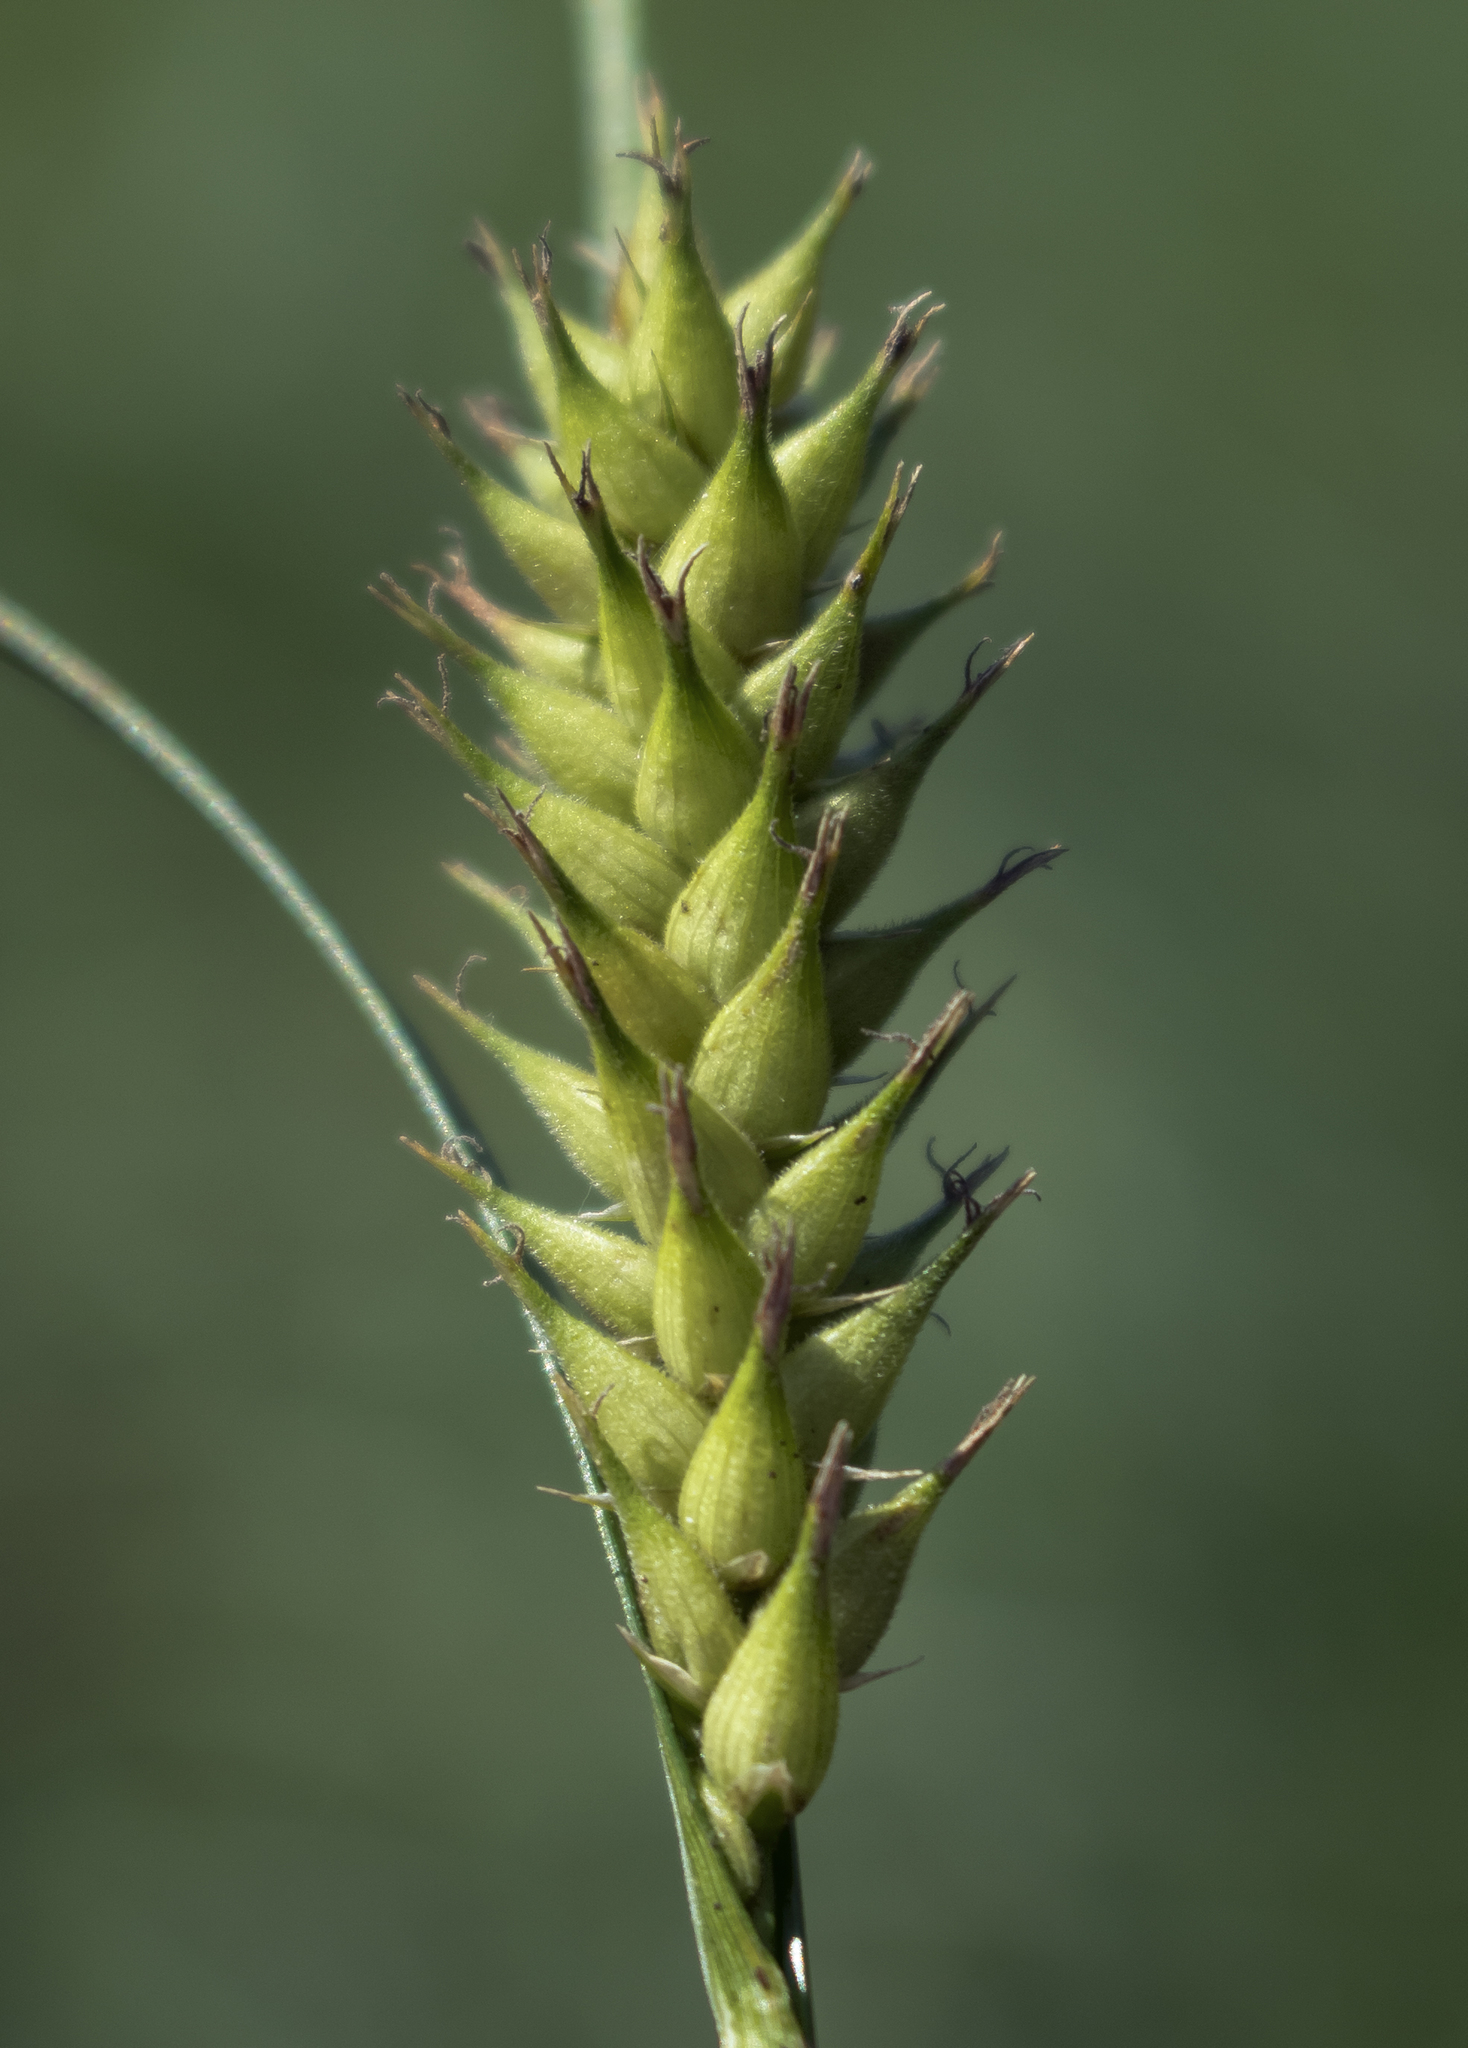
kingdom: Plantae
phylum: Tracheophyta
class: Liliopsida
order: Poales
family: Cyperaceae
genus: Carex
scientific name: Carex trichocarpa
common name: Hairy-fruited lake sedge
